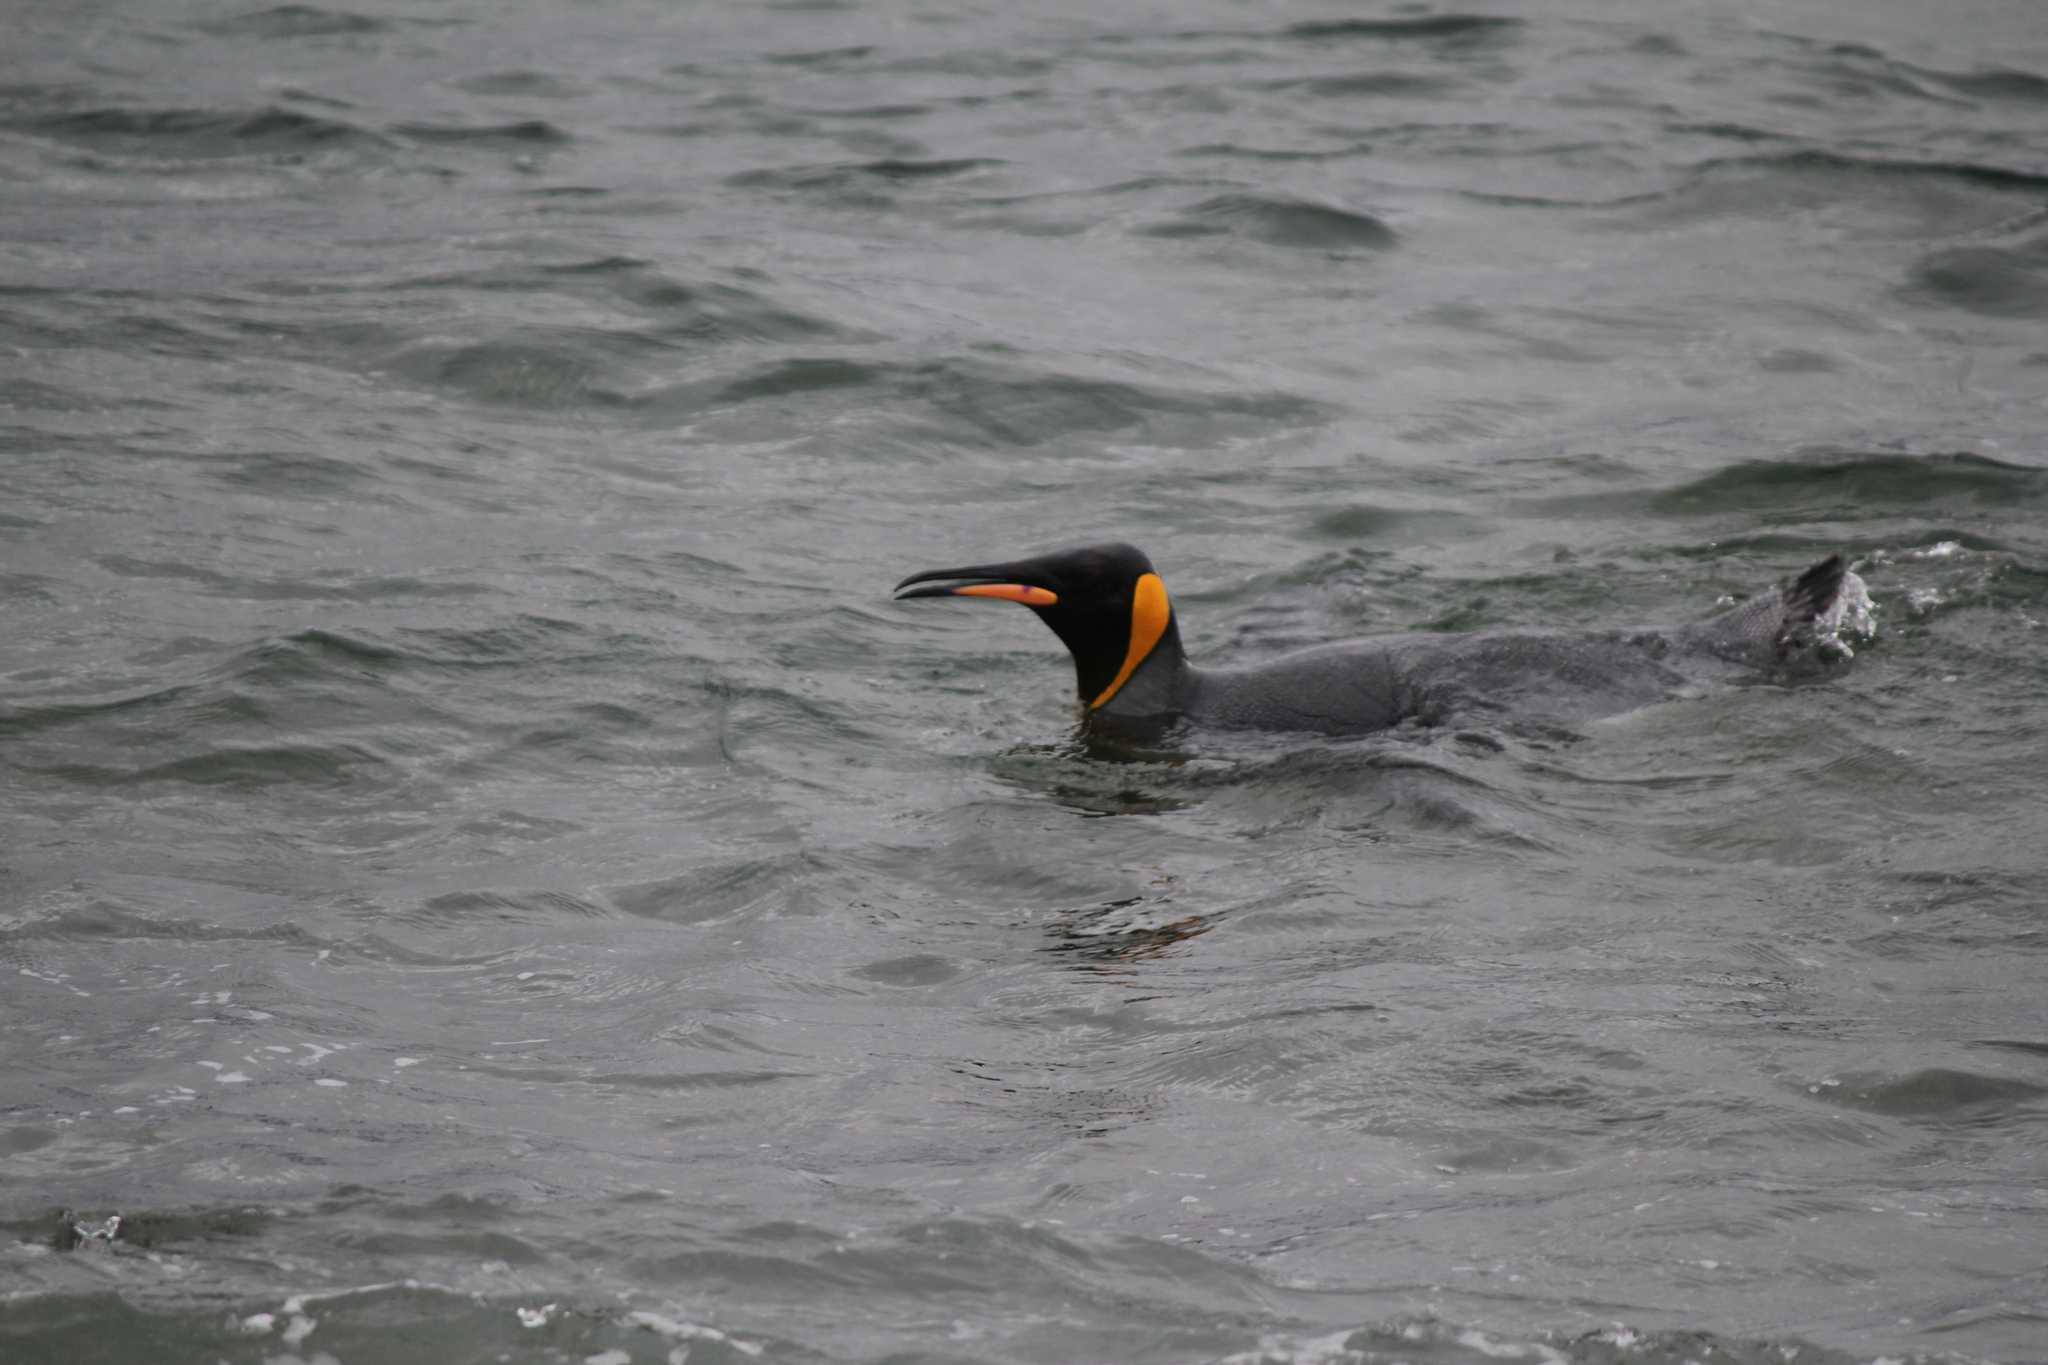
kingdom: Animalia
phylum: Chordata
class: Aves
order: Sphenisciformes
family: Spheniscidae
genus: Aptenodytes
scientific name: Aptenodytes patagonicus
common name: King penguin
